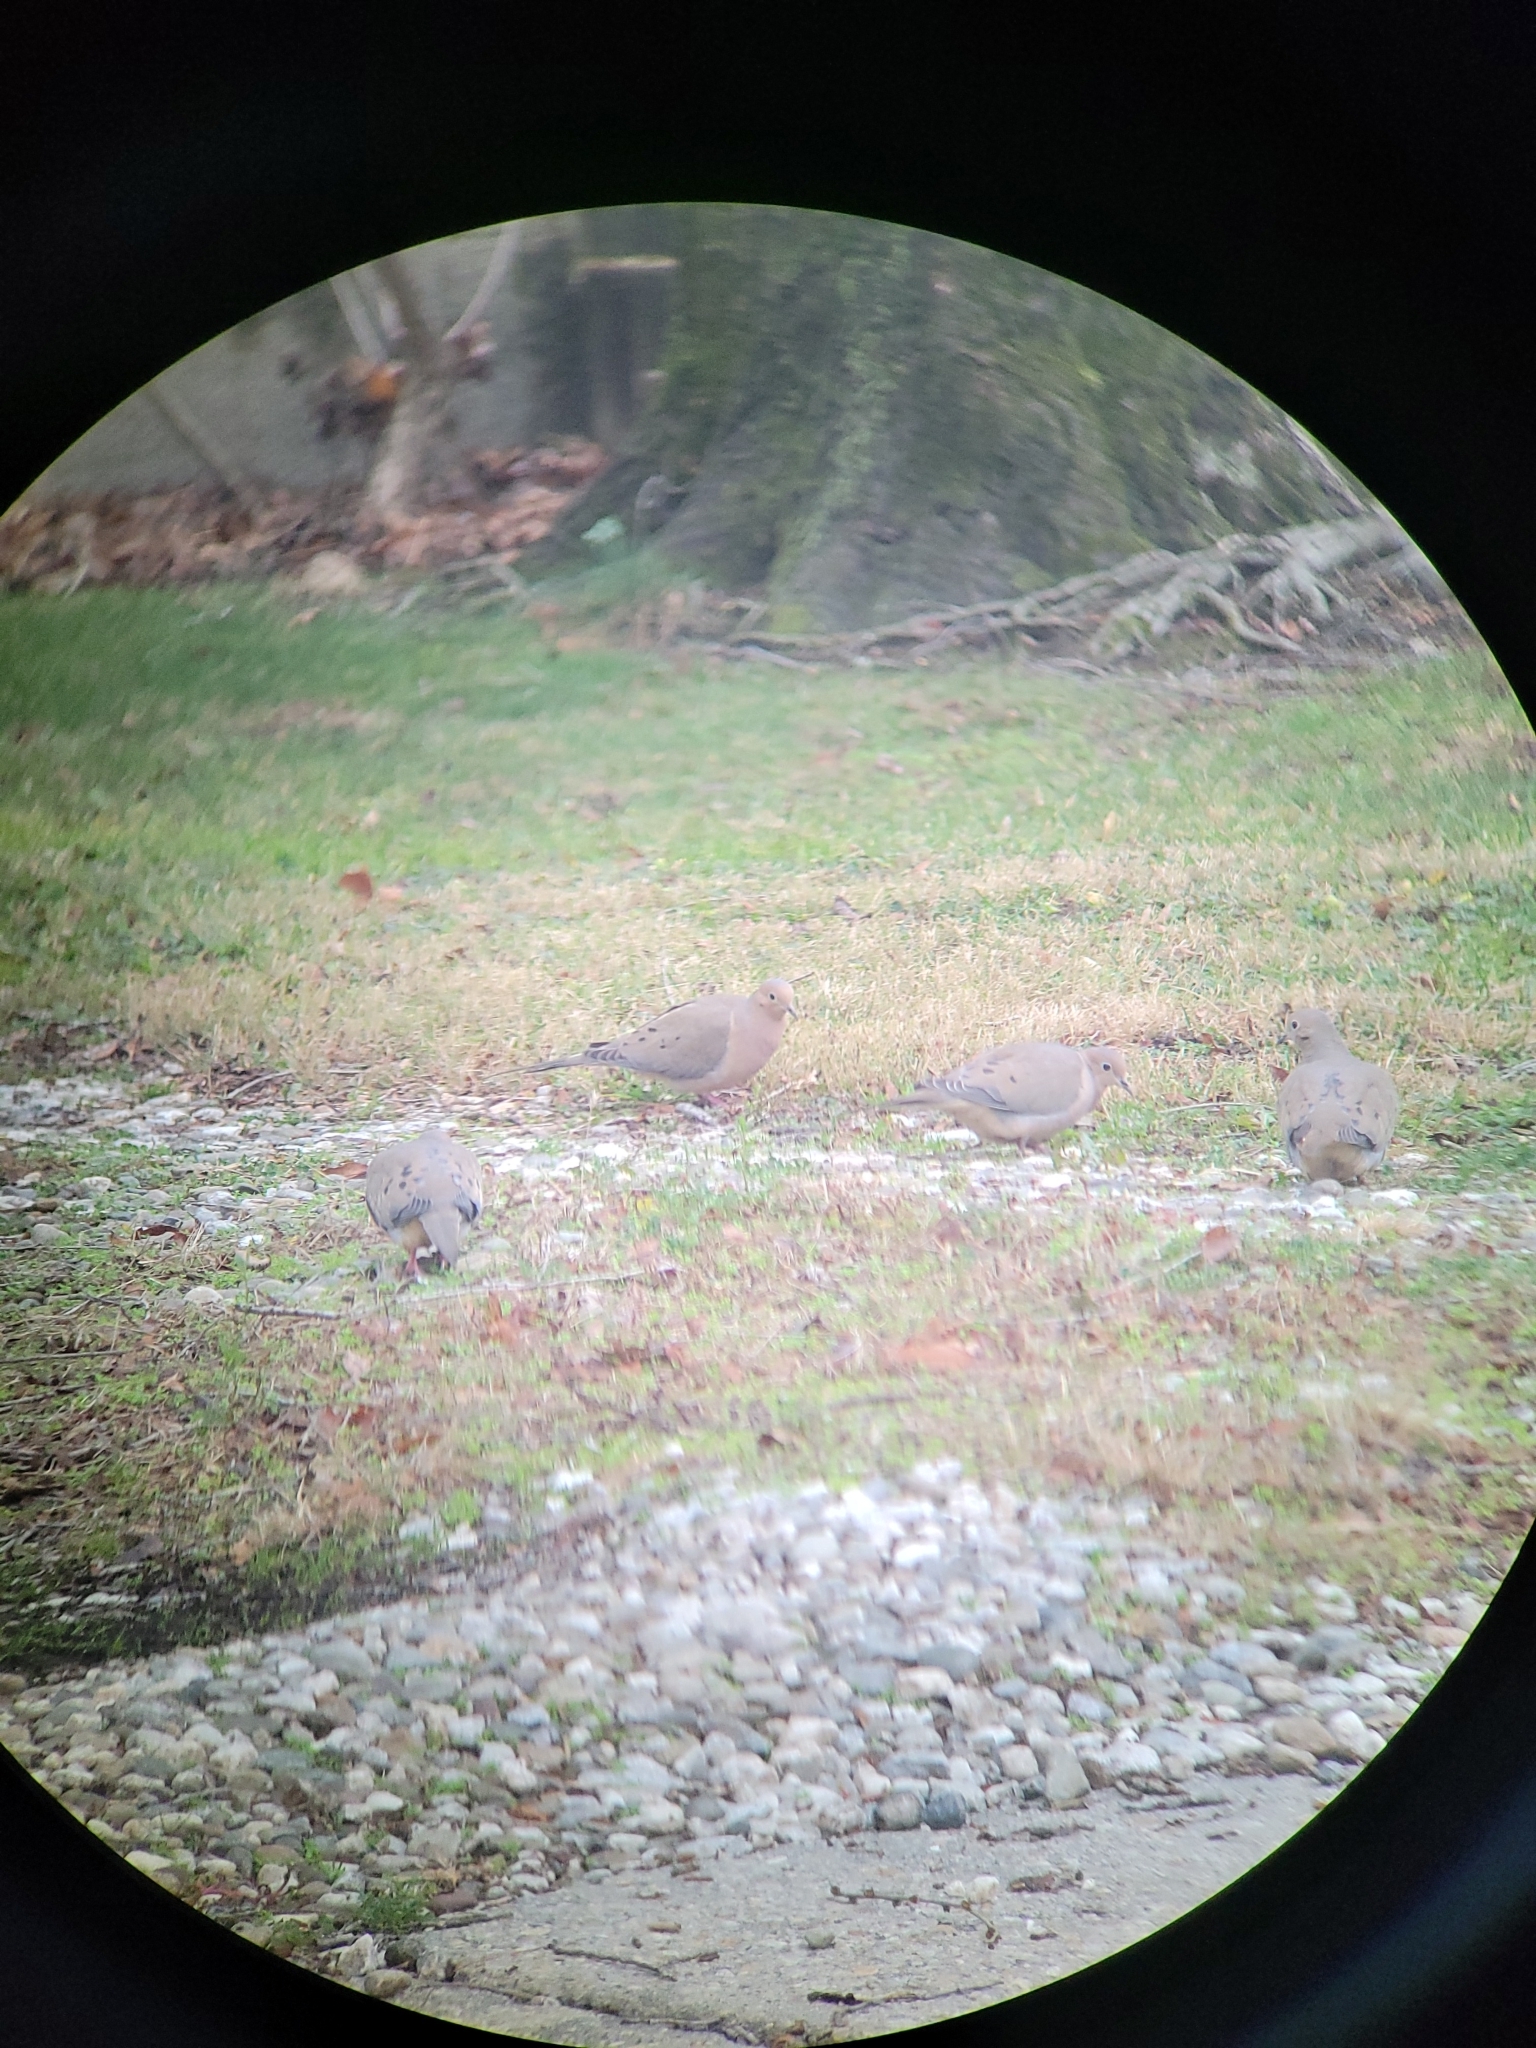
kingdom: Animalia
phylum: Chordata
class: Aves
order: Columbiformes
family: Columbidae
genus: Zenaida
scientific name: Zenaida macroura
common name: Mourning dove
